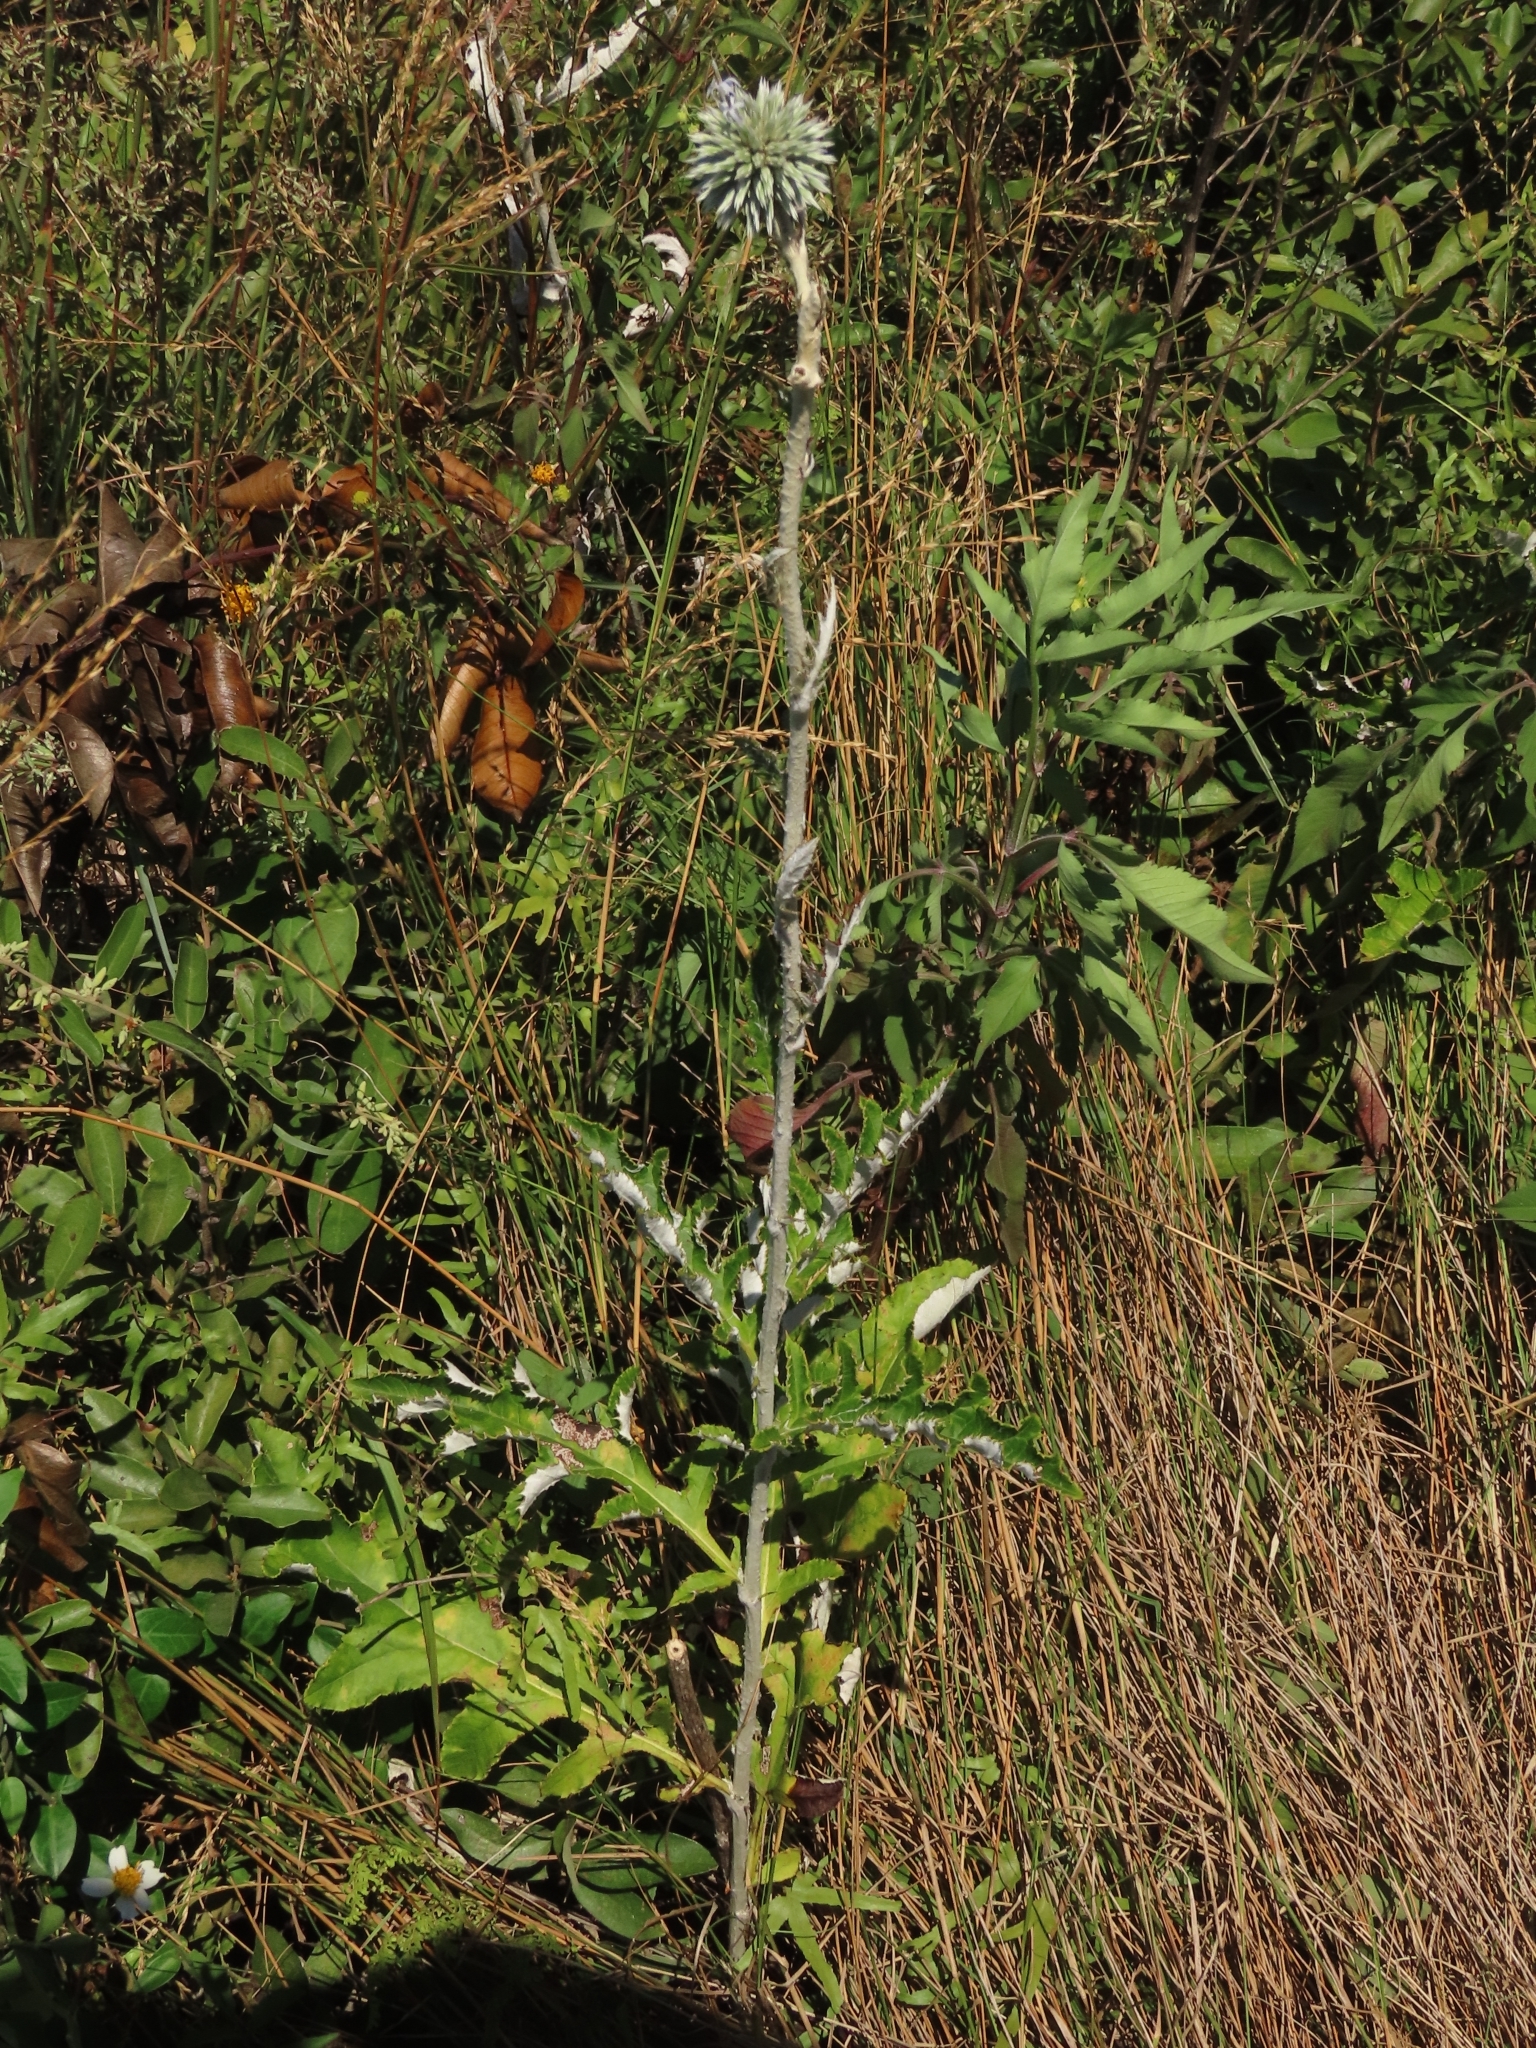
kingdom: Plantae
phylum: Tracheophyta
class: Magnoliopsida
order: Asterales
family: Asteraceae
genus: Echinops
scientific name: Echinops grijsii
